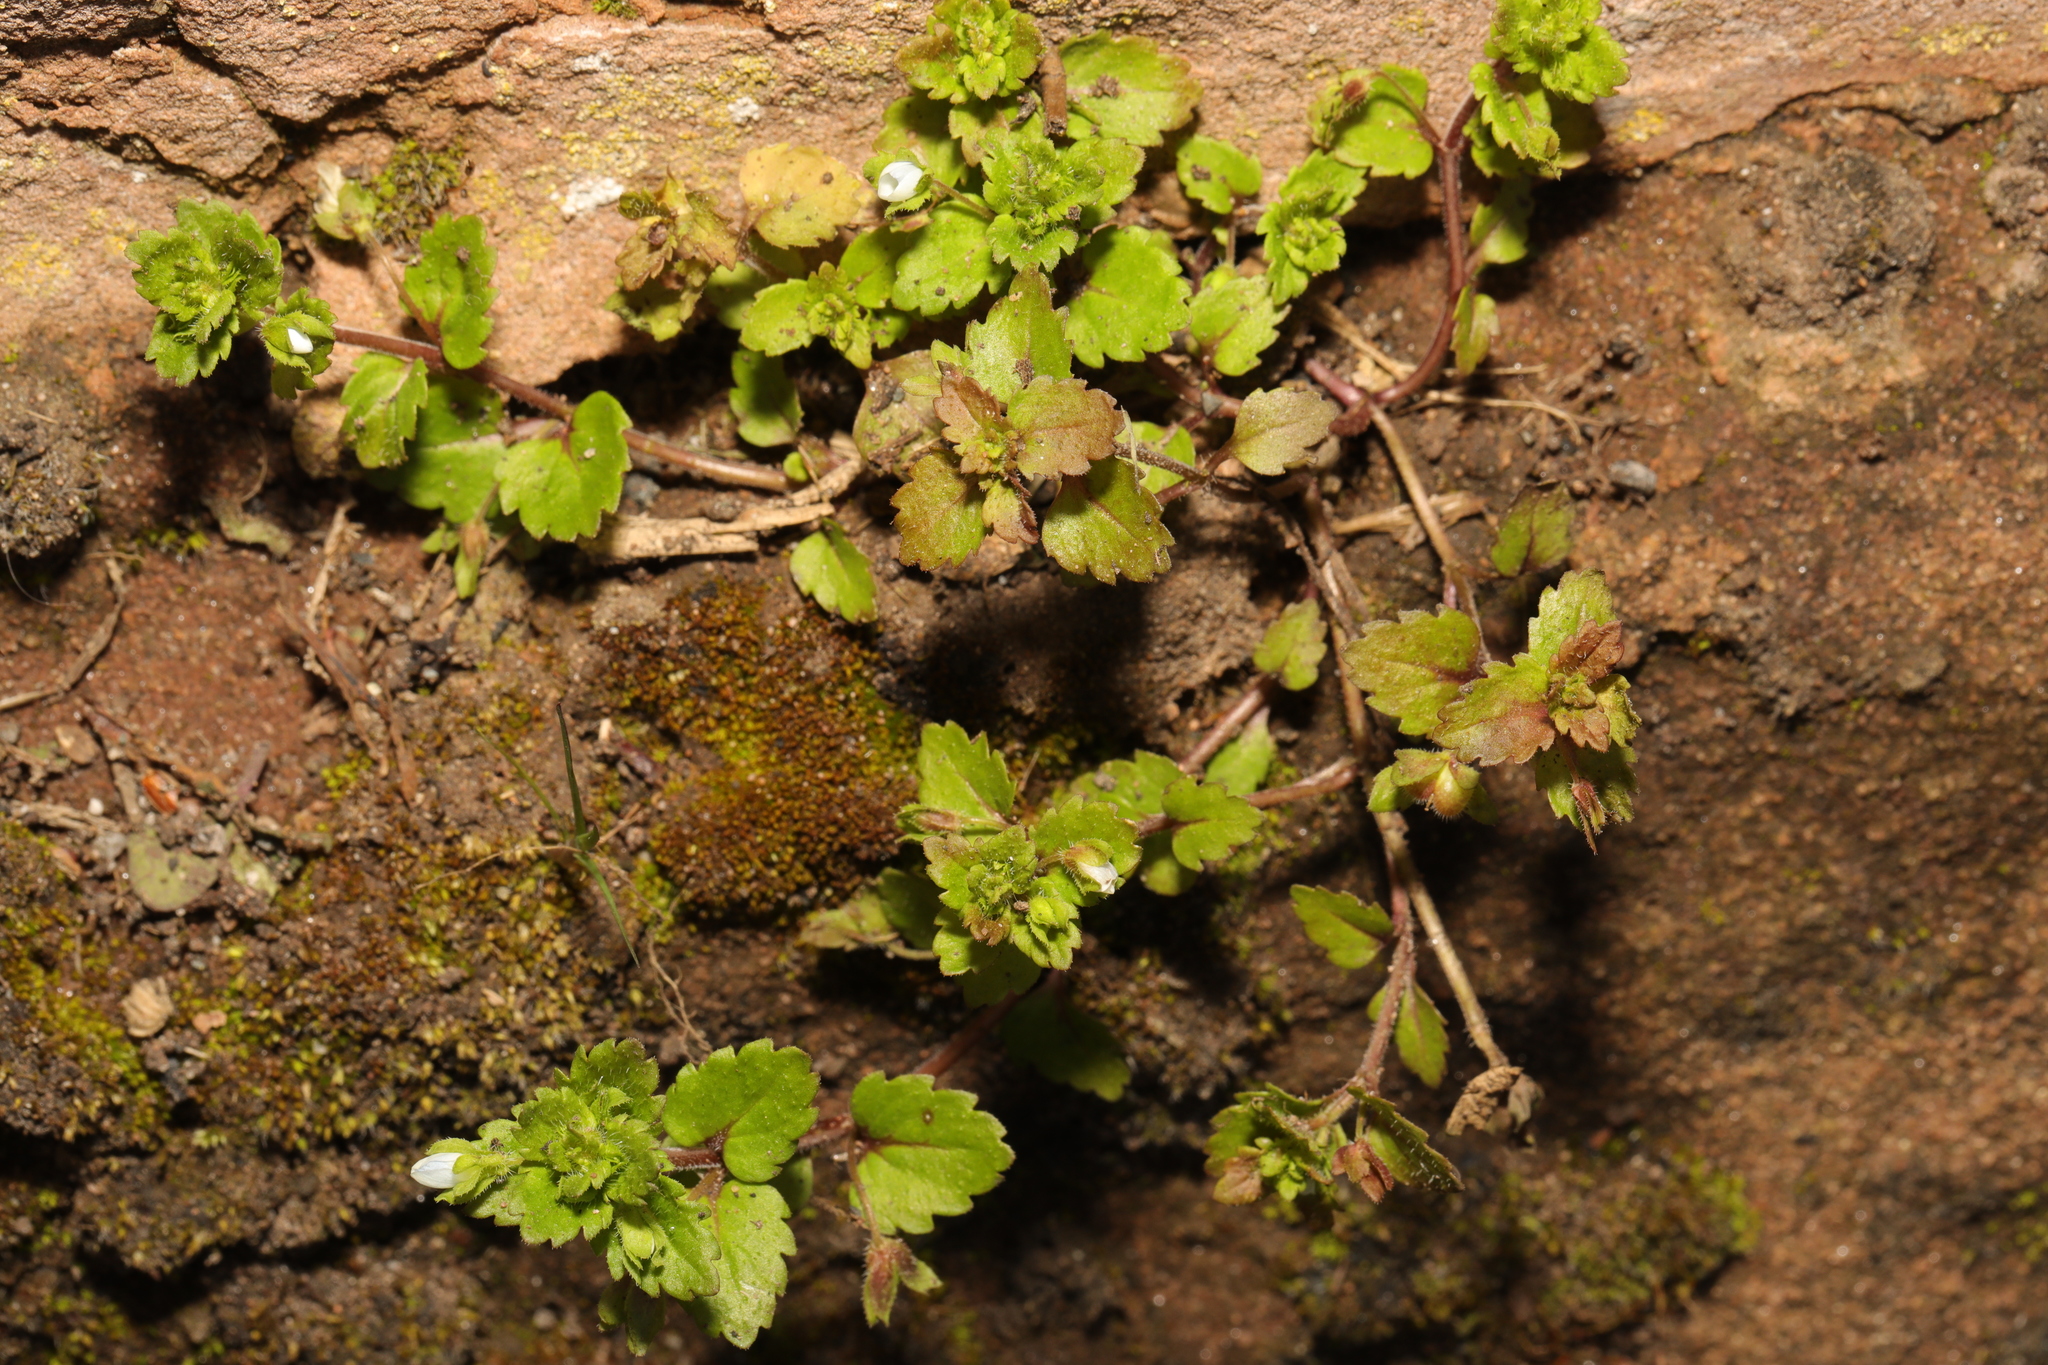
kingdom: Plantae
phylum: Tracheophyta
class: Magnoliopsida
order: Lamiales
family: Plantaginaceae
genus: Veronica
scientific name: Veronica agrestis
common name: Green field-speedwell
